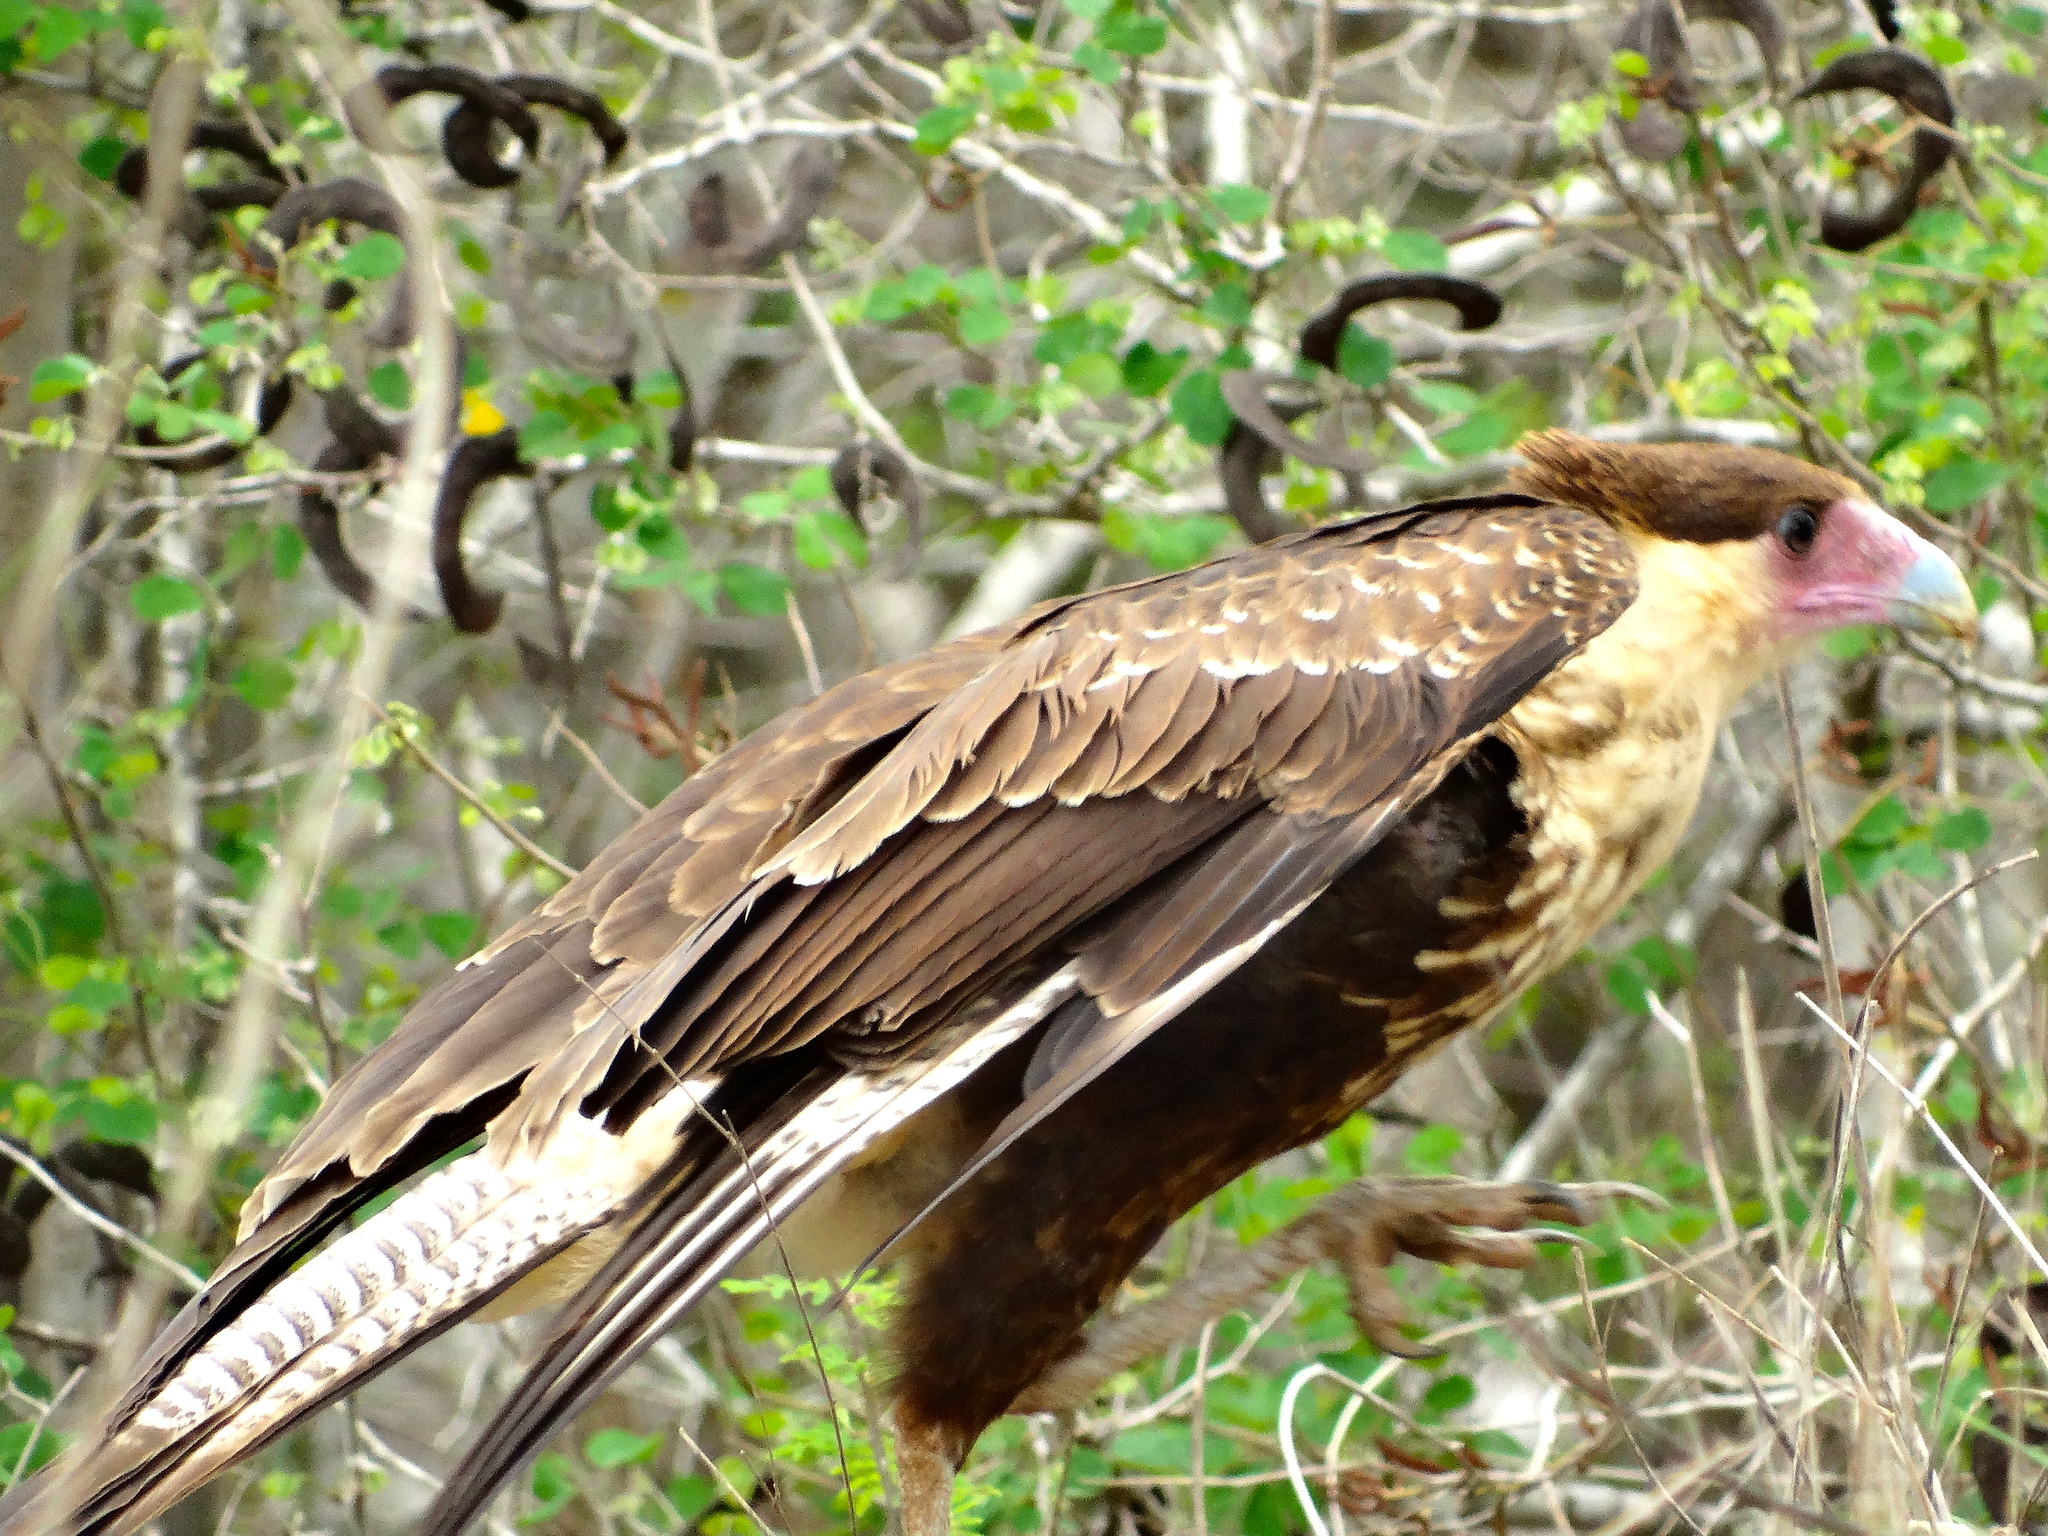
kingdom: Animalia
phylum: Chordata
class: Aves
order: Falconiformes
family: Falconidae
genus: Caracara
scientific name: Caracara plancus
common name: Southern caracara
